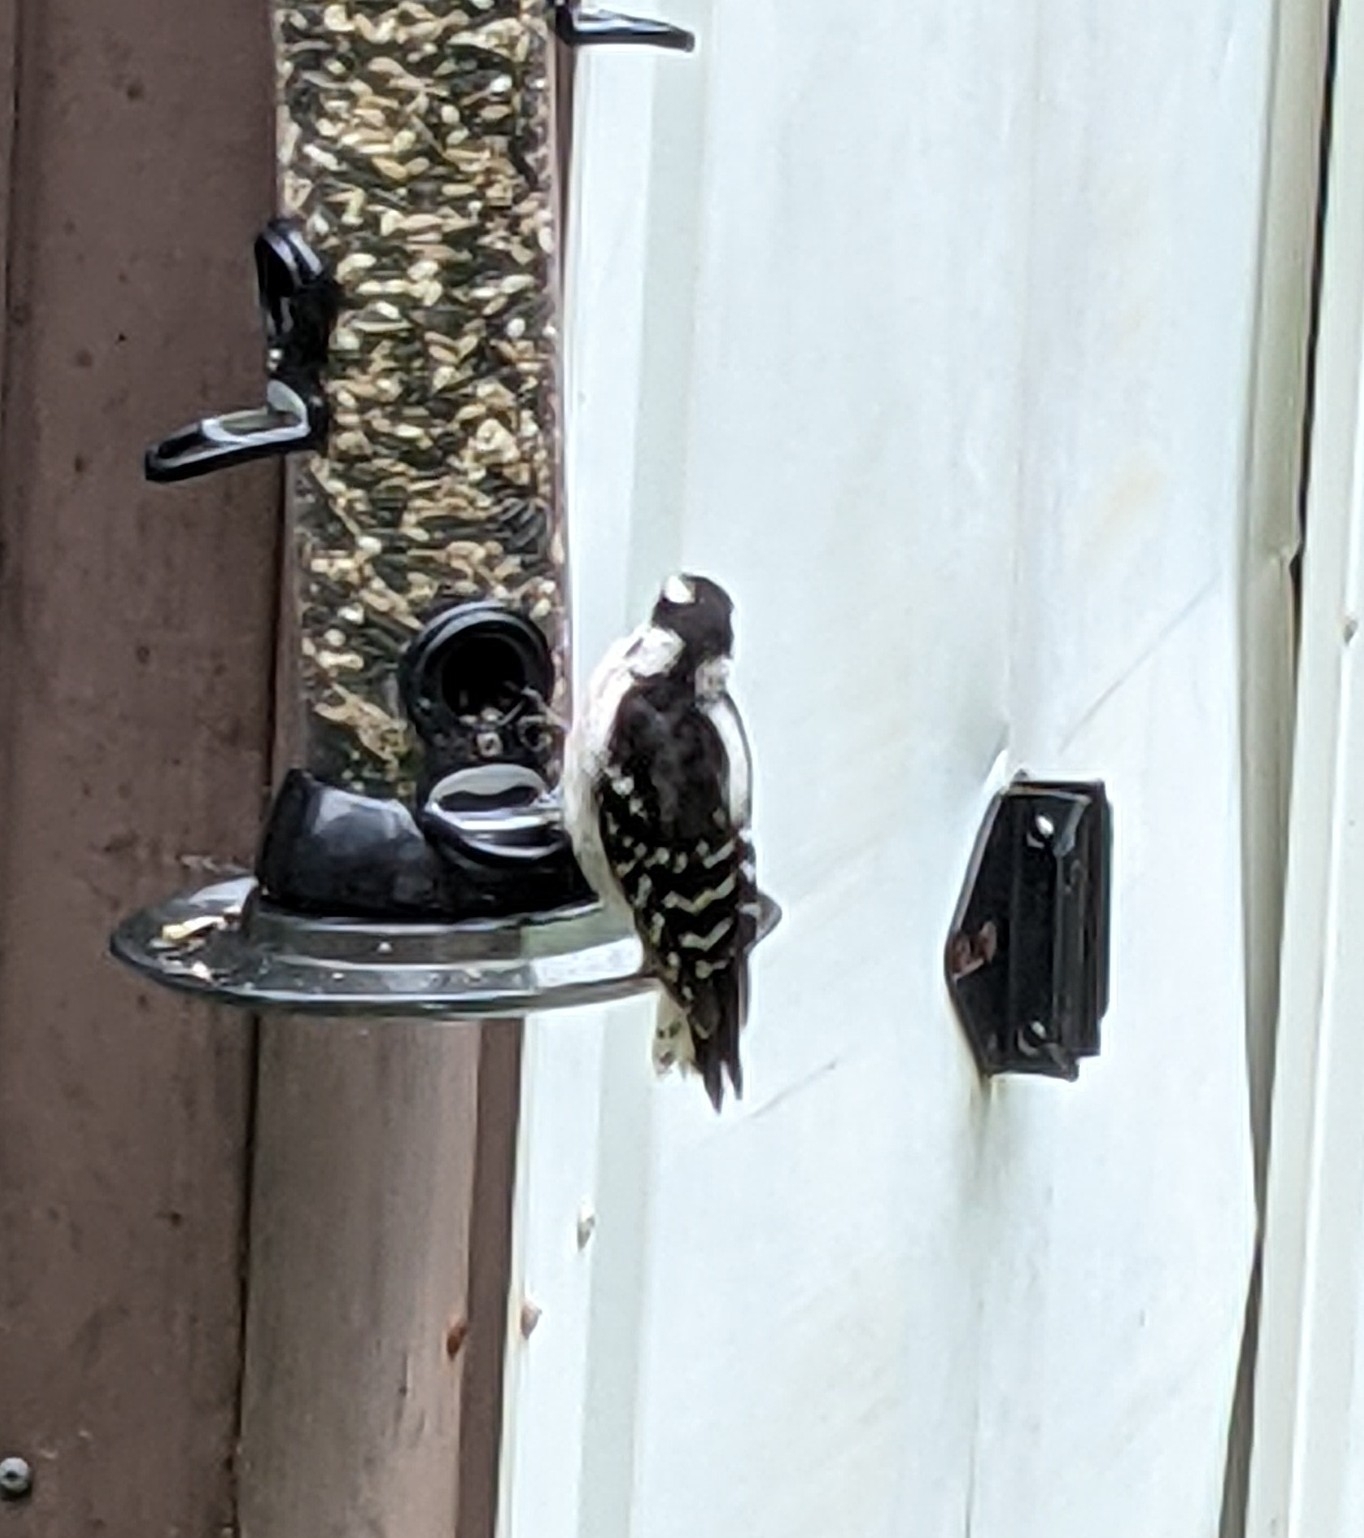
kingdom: Animalia
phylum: Chordata
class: Aves
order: Piciformes
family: Picidae
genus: Dryobates
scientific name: Dryobates pubescens
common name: Downy woodpecker
